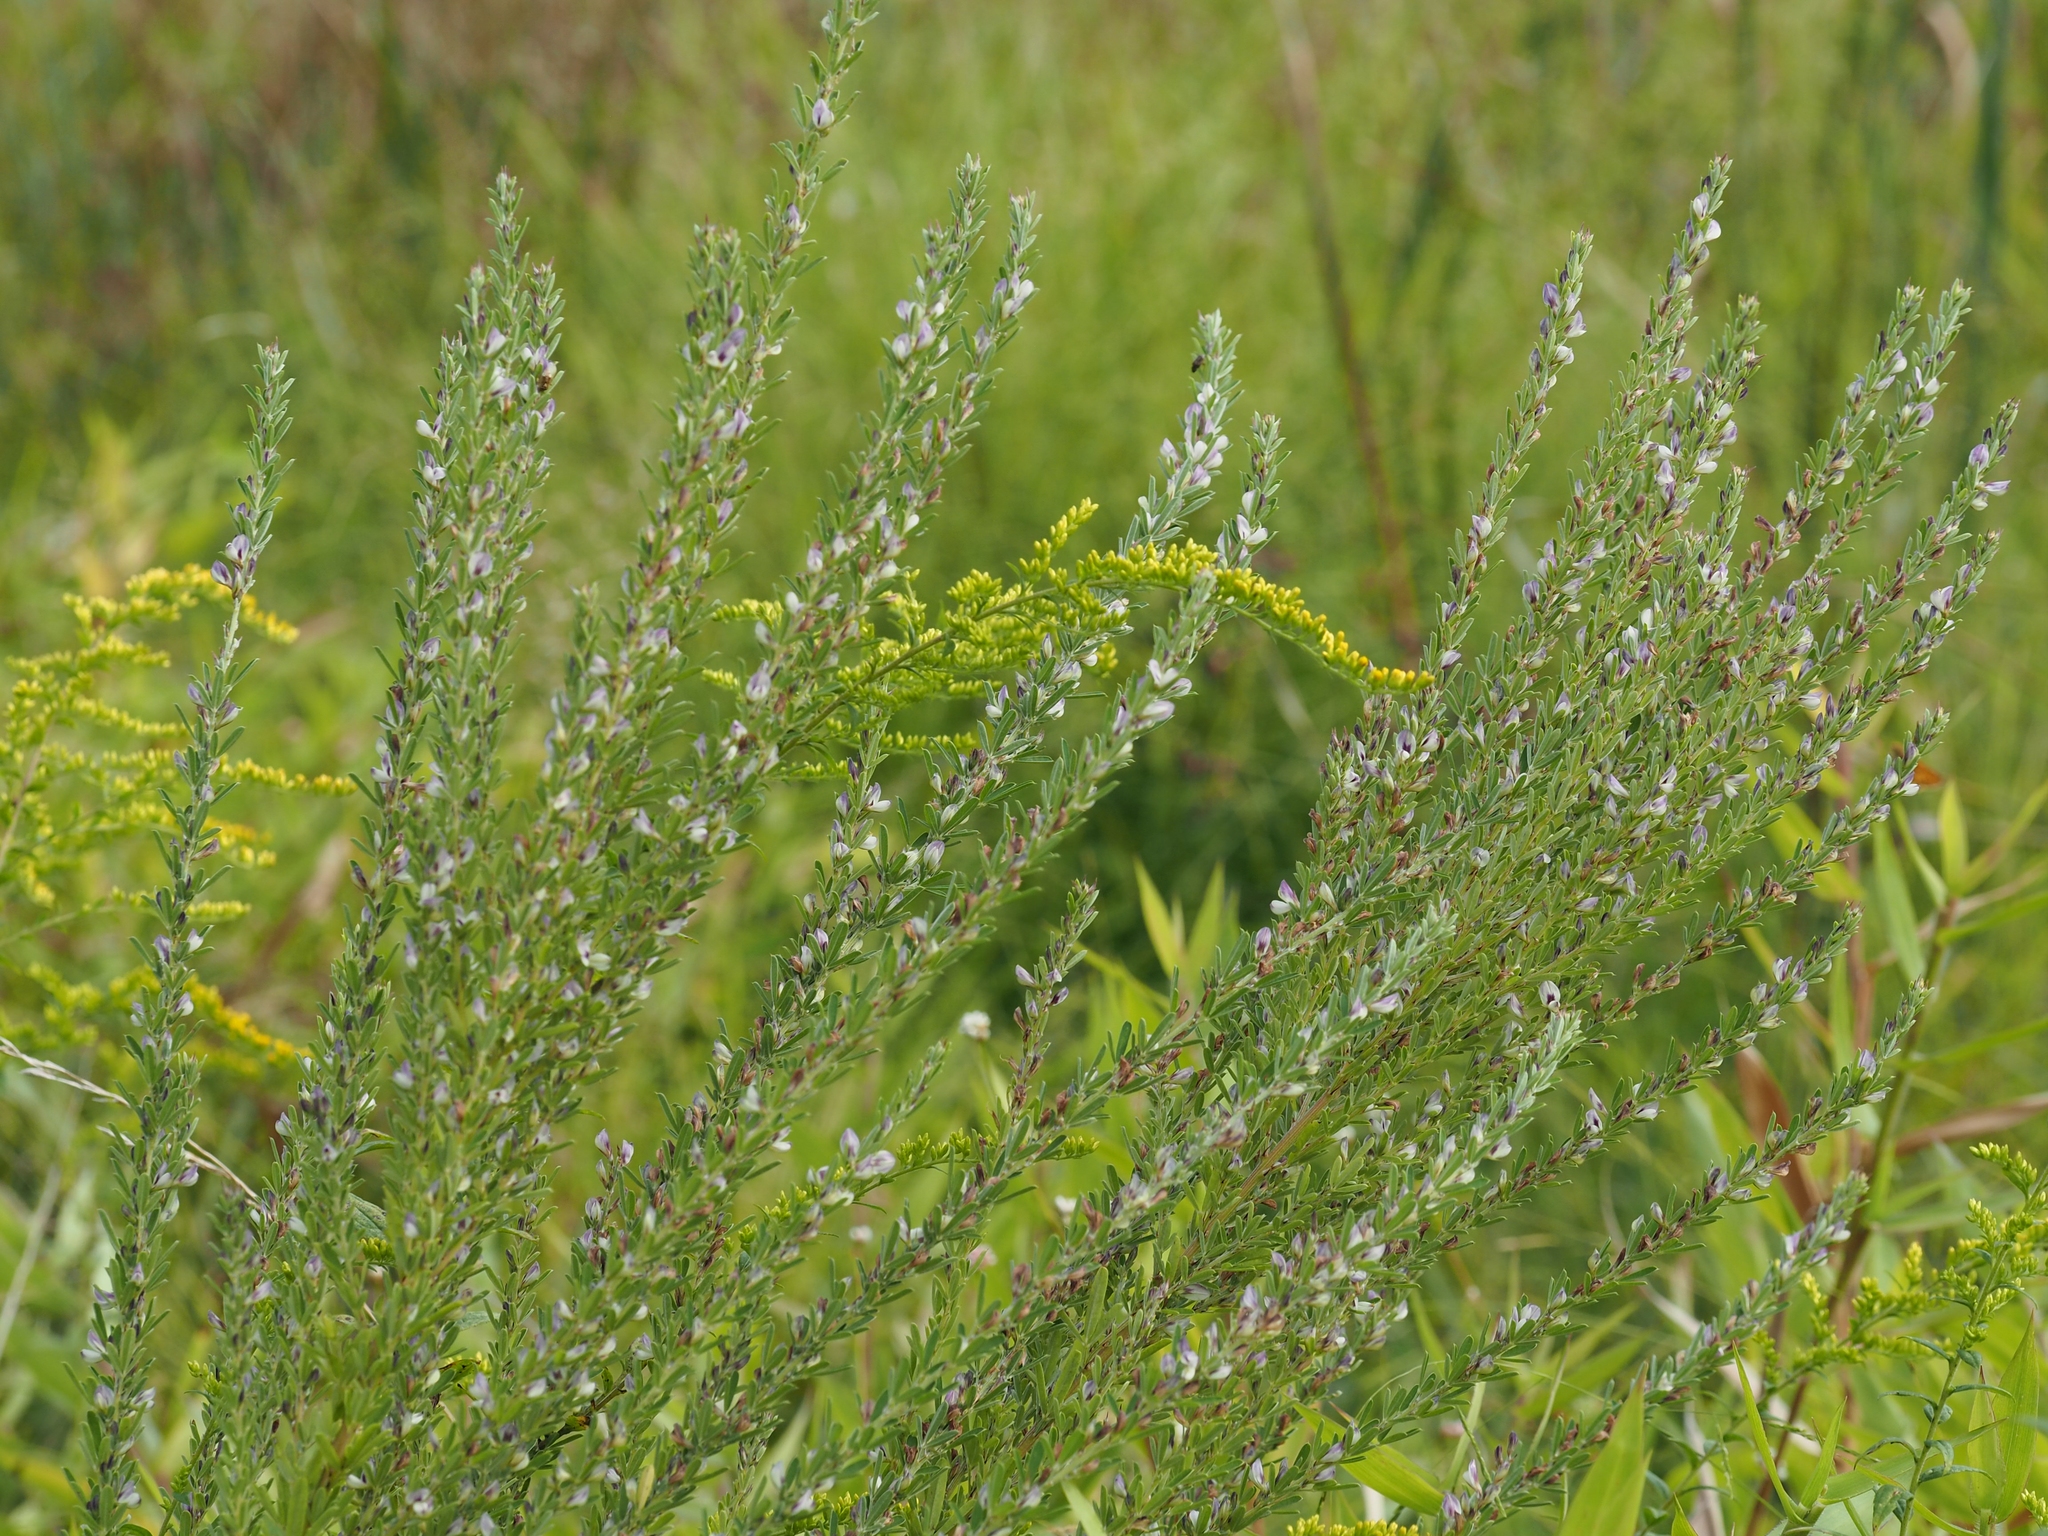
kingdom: Plantae
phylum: Tracheophyta
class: Magnoliopsida
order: Fabales
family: Fabaceae
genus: Lespedeza
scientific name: Lespedeza cuneata
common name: Chinese bush-clover
